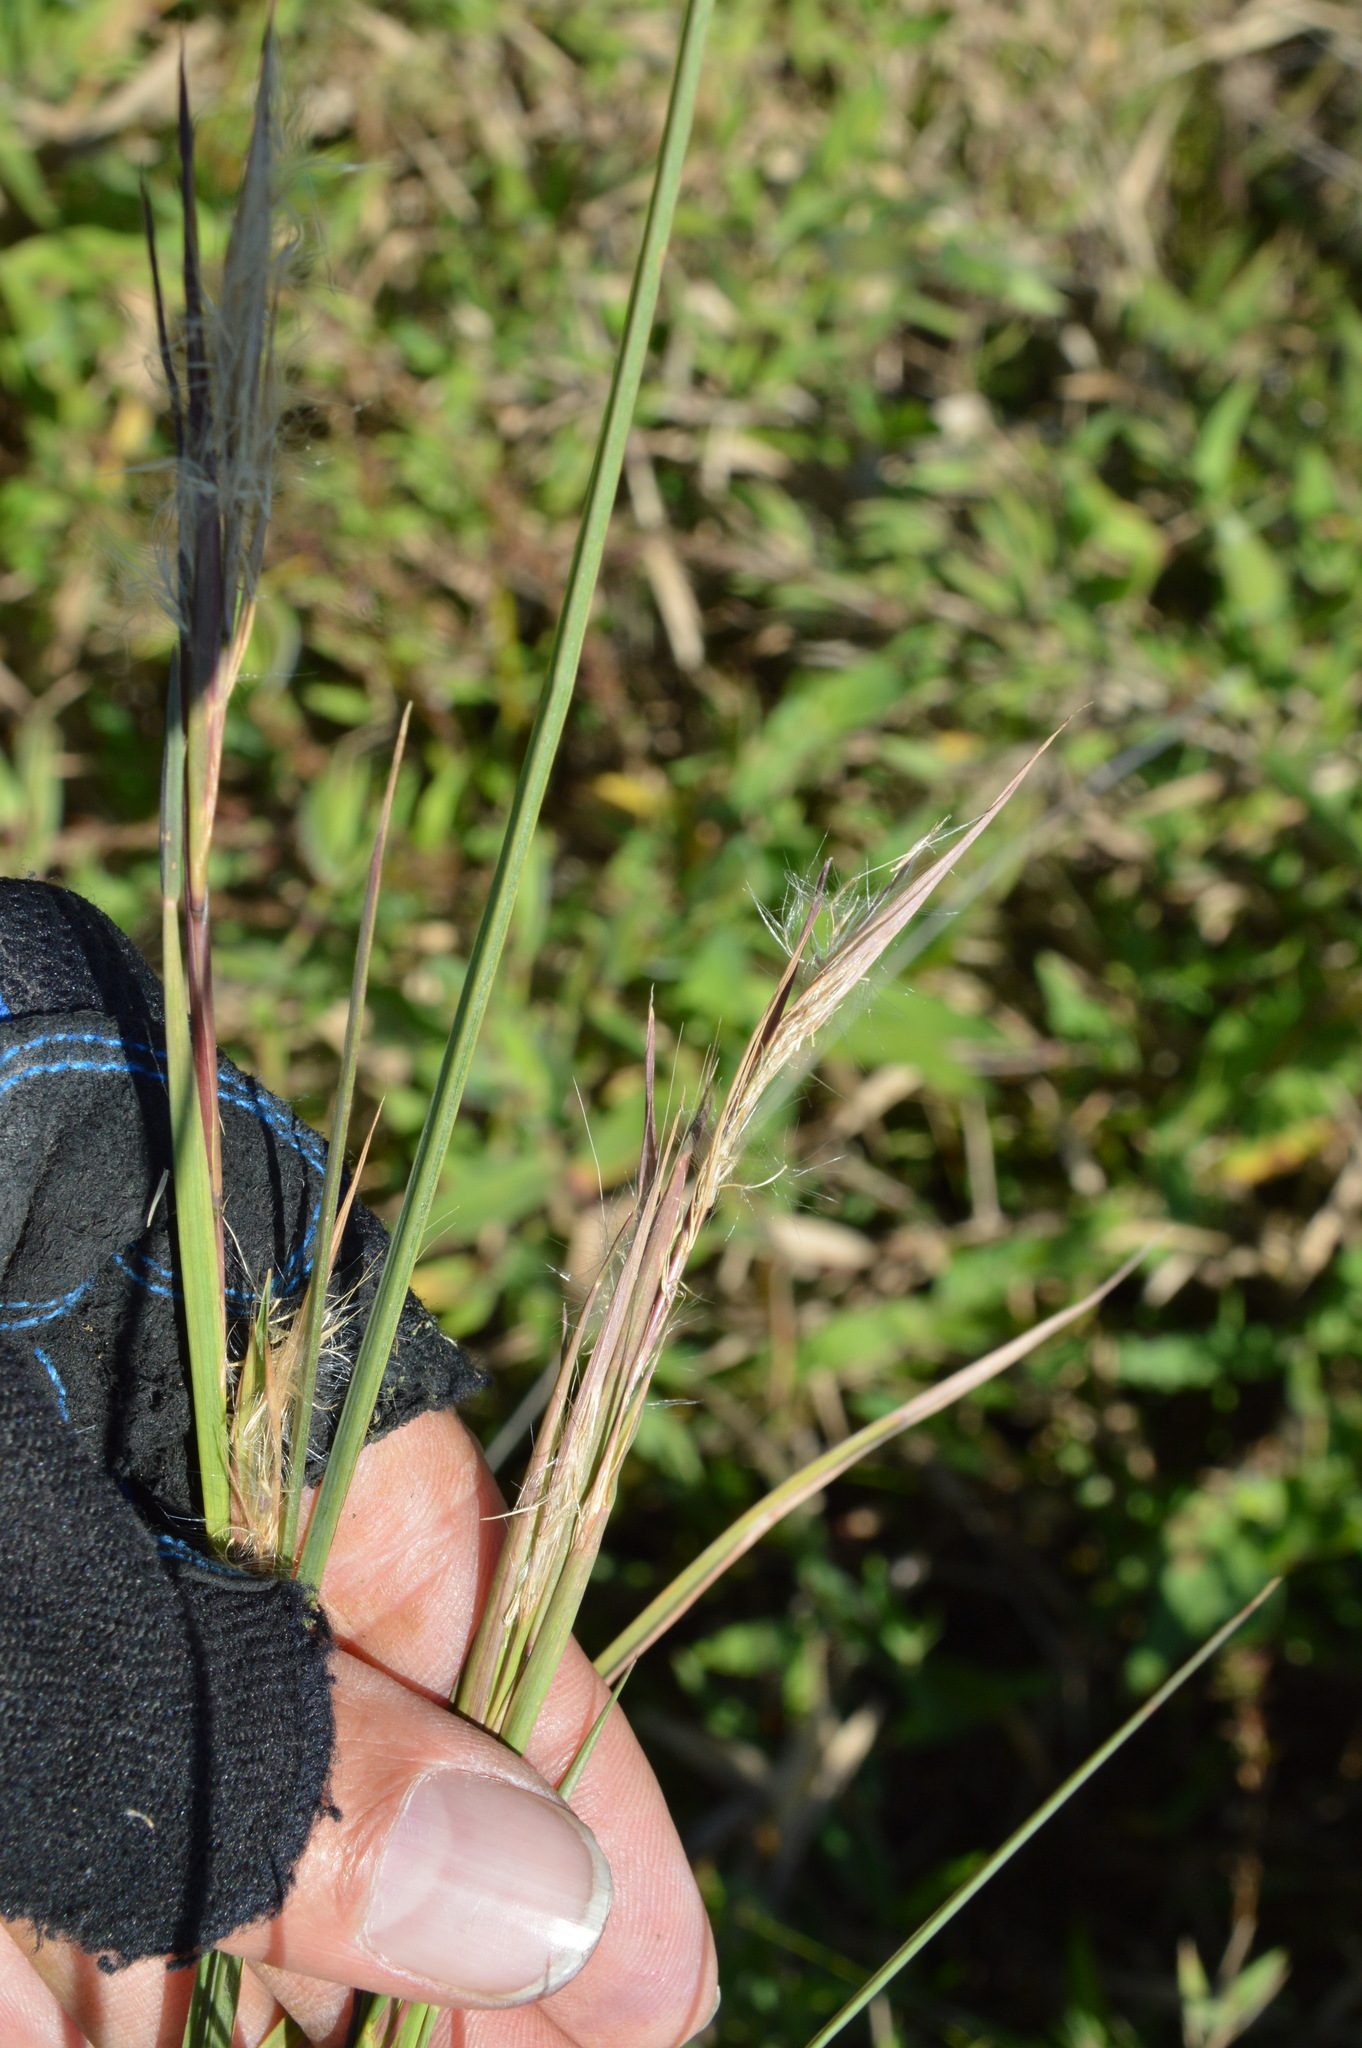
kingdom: Plantae
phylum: Tracheophyta
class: Liliopsida
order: Poales
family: Poaceae
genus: Andropogon
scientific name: Andropogon virginicus
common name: Broomsedge bluestem
